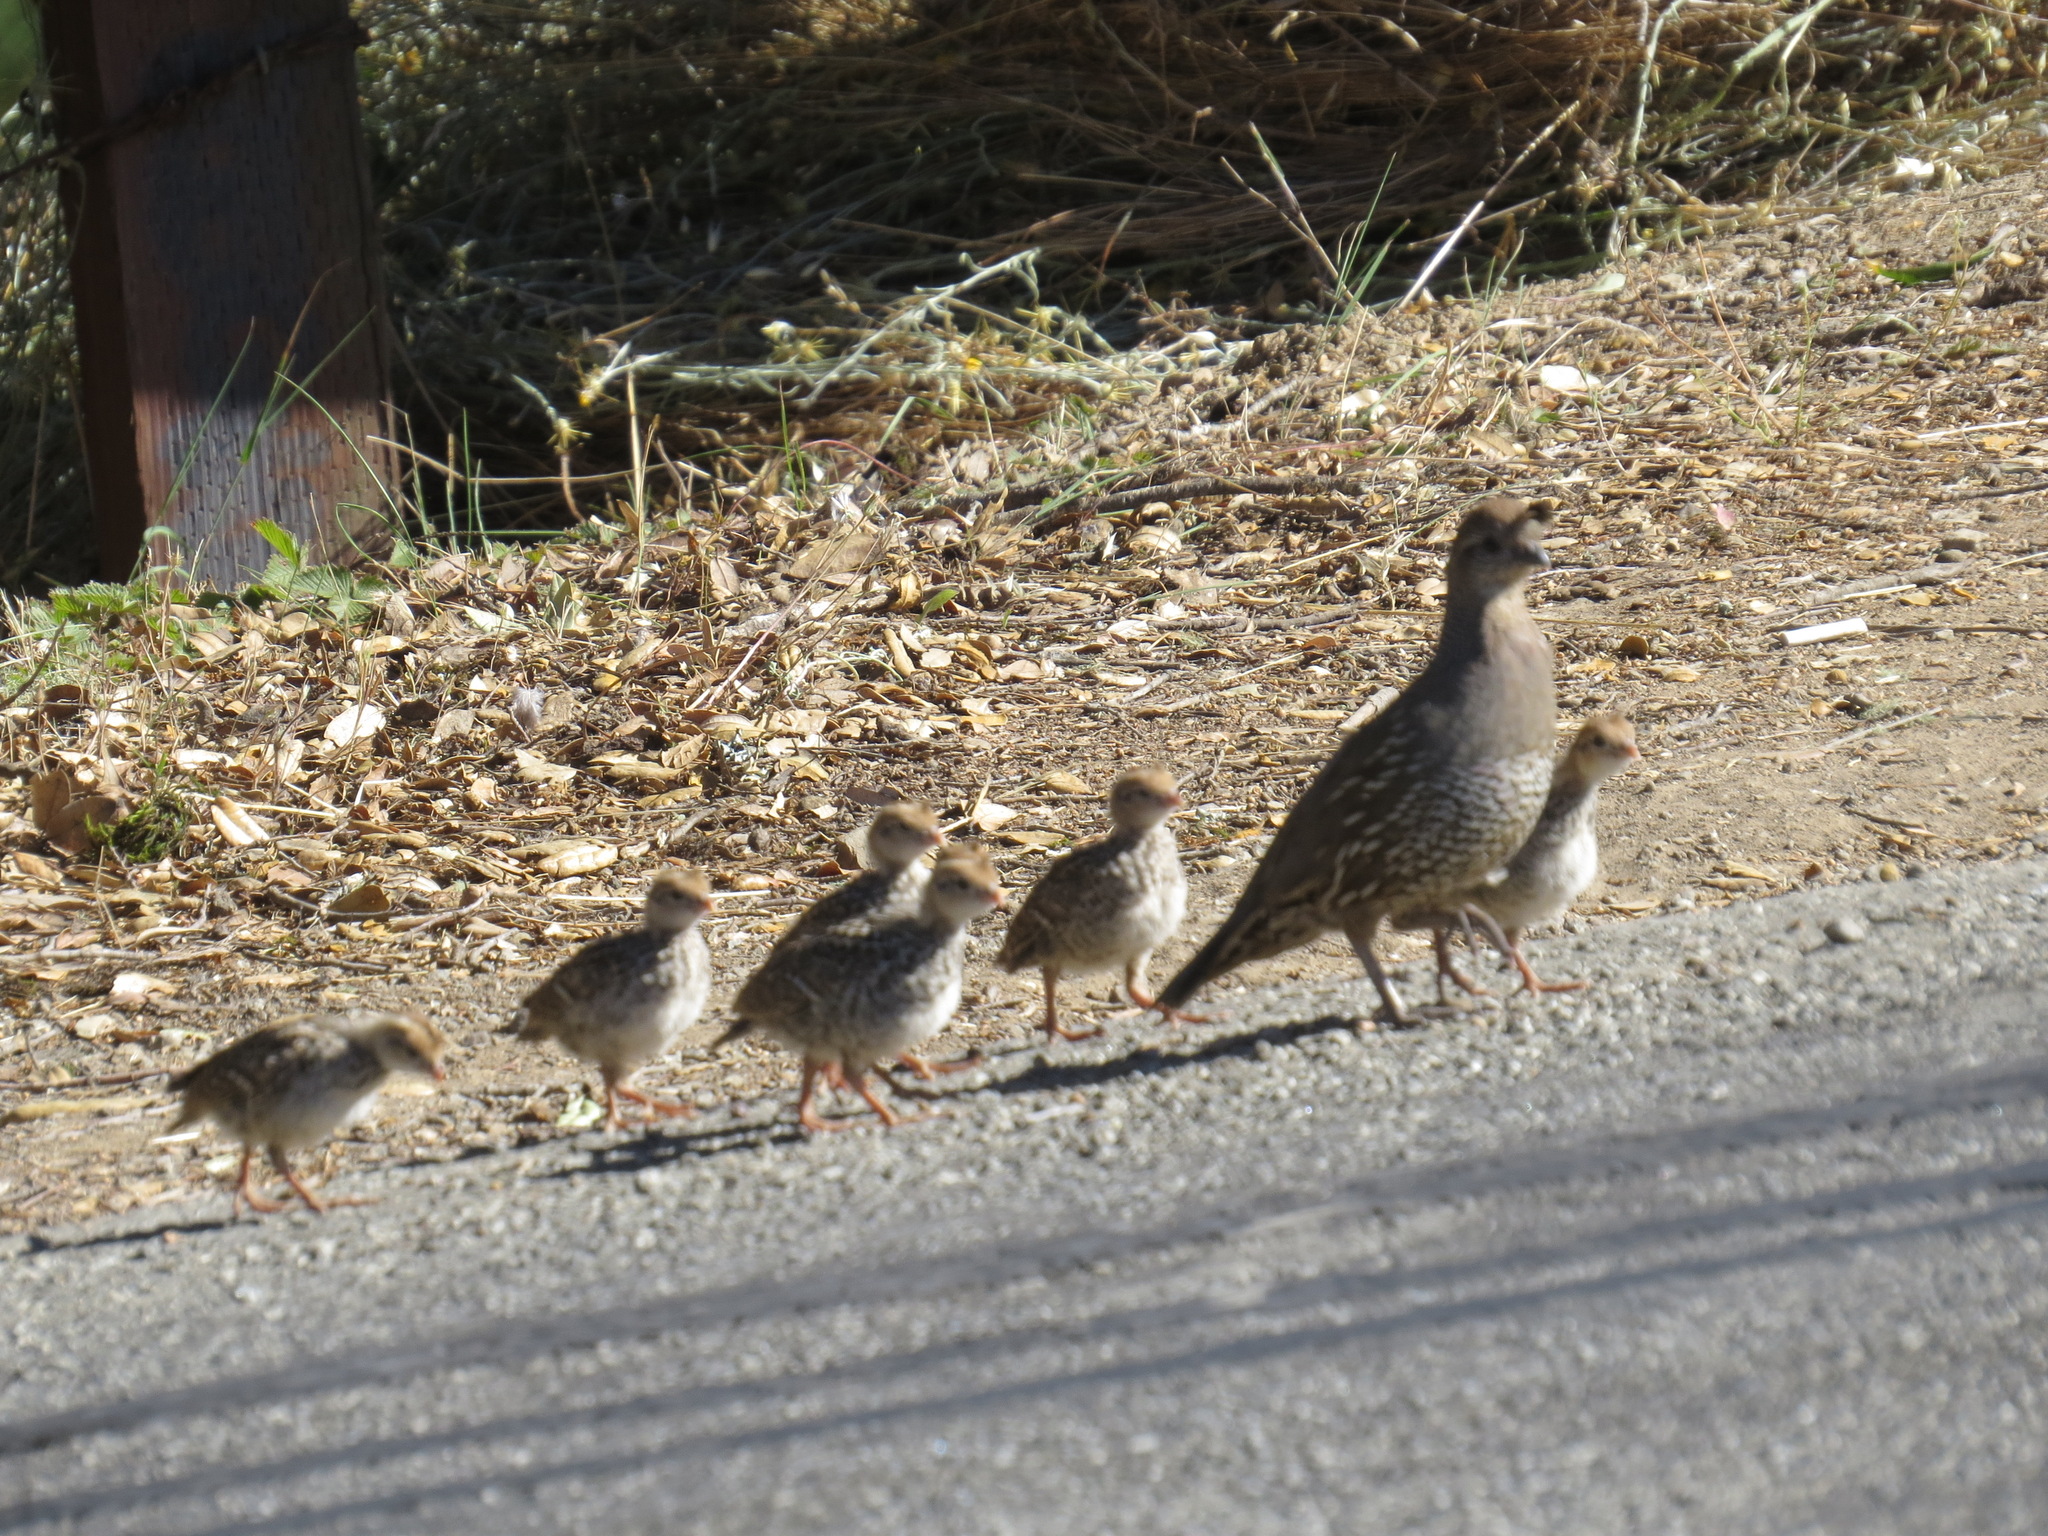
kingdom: Animalia
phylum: Chordata
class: Aves
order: Galliformes
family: Odontophoridae
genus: Callipepla
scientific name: Callipepla californica
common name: California quail
